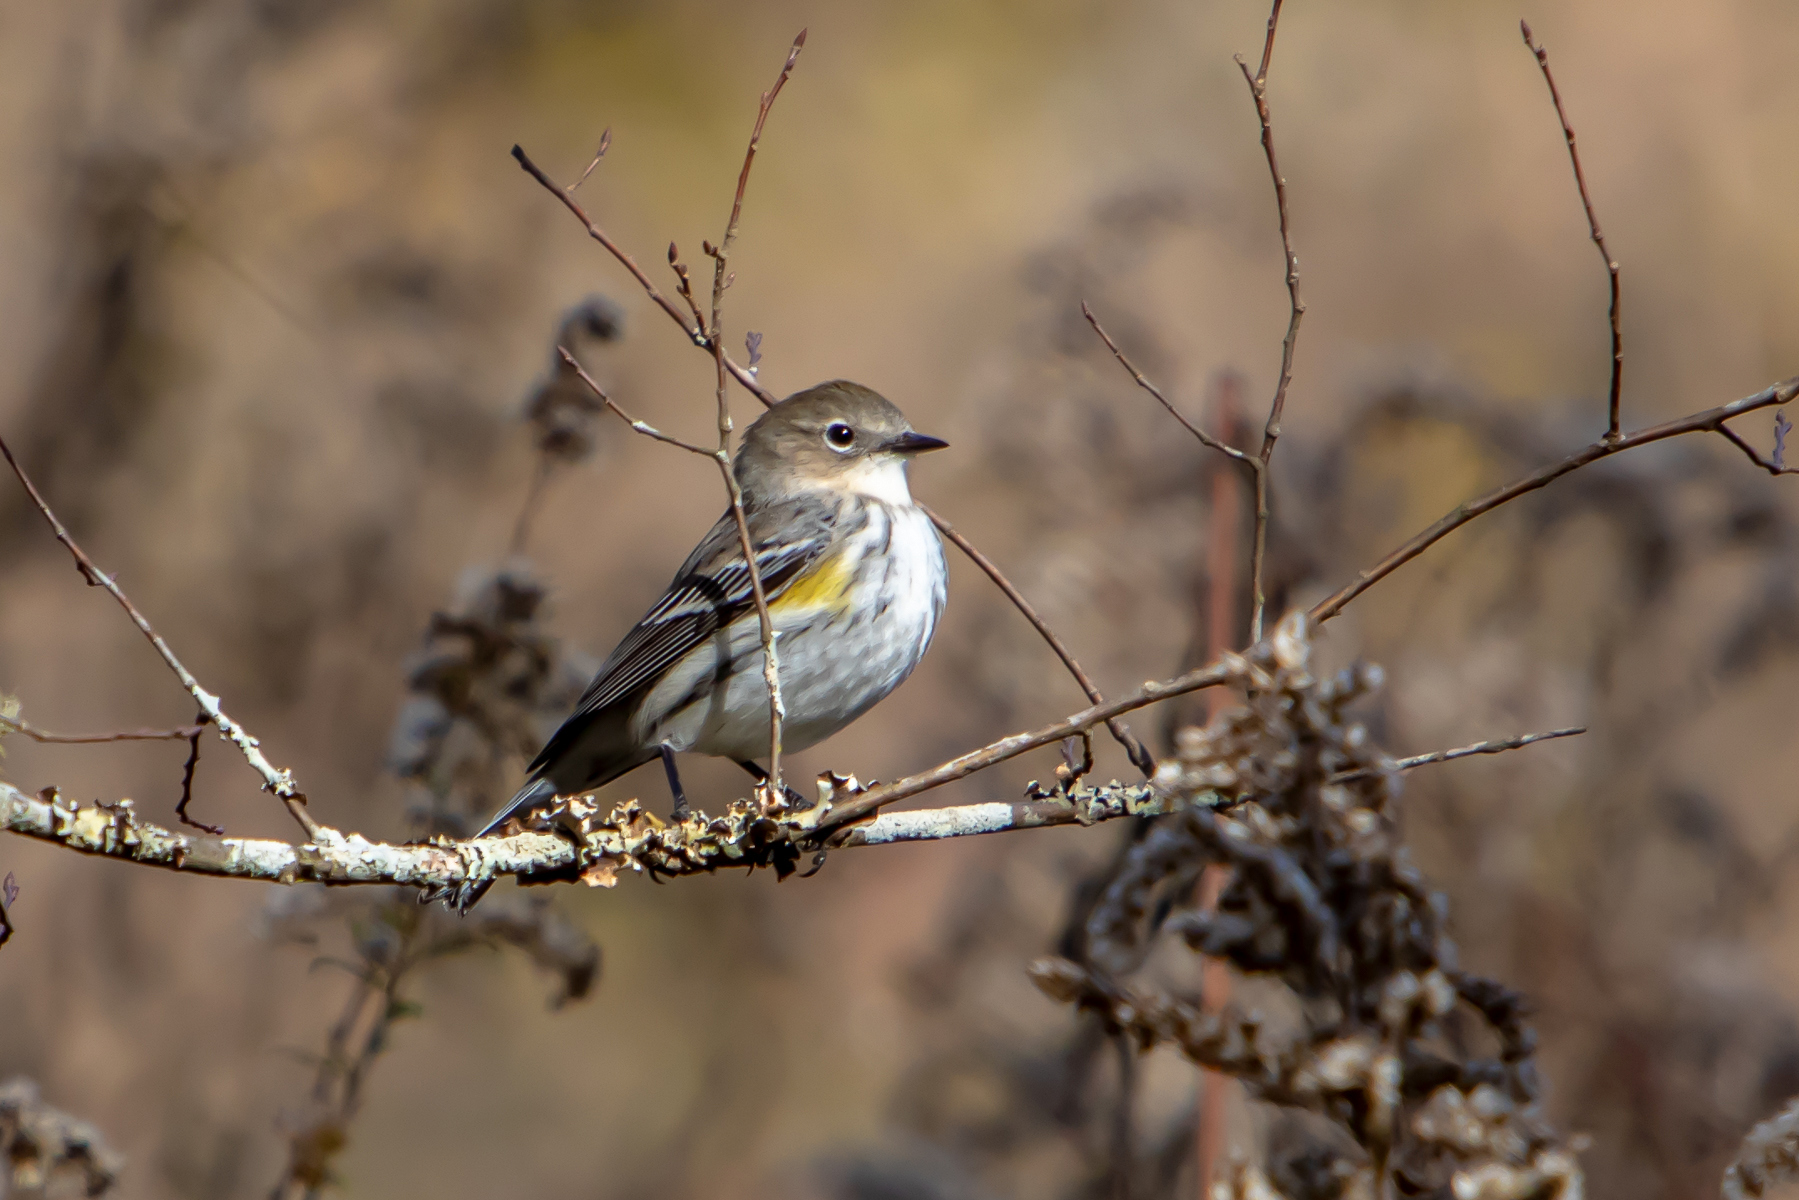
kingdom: Animalia
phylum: Chordata
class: Aves
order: Passeriformes
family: Parulidae
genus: Setophaga
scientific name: Setophaga coronata
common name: Myrtle warbler
